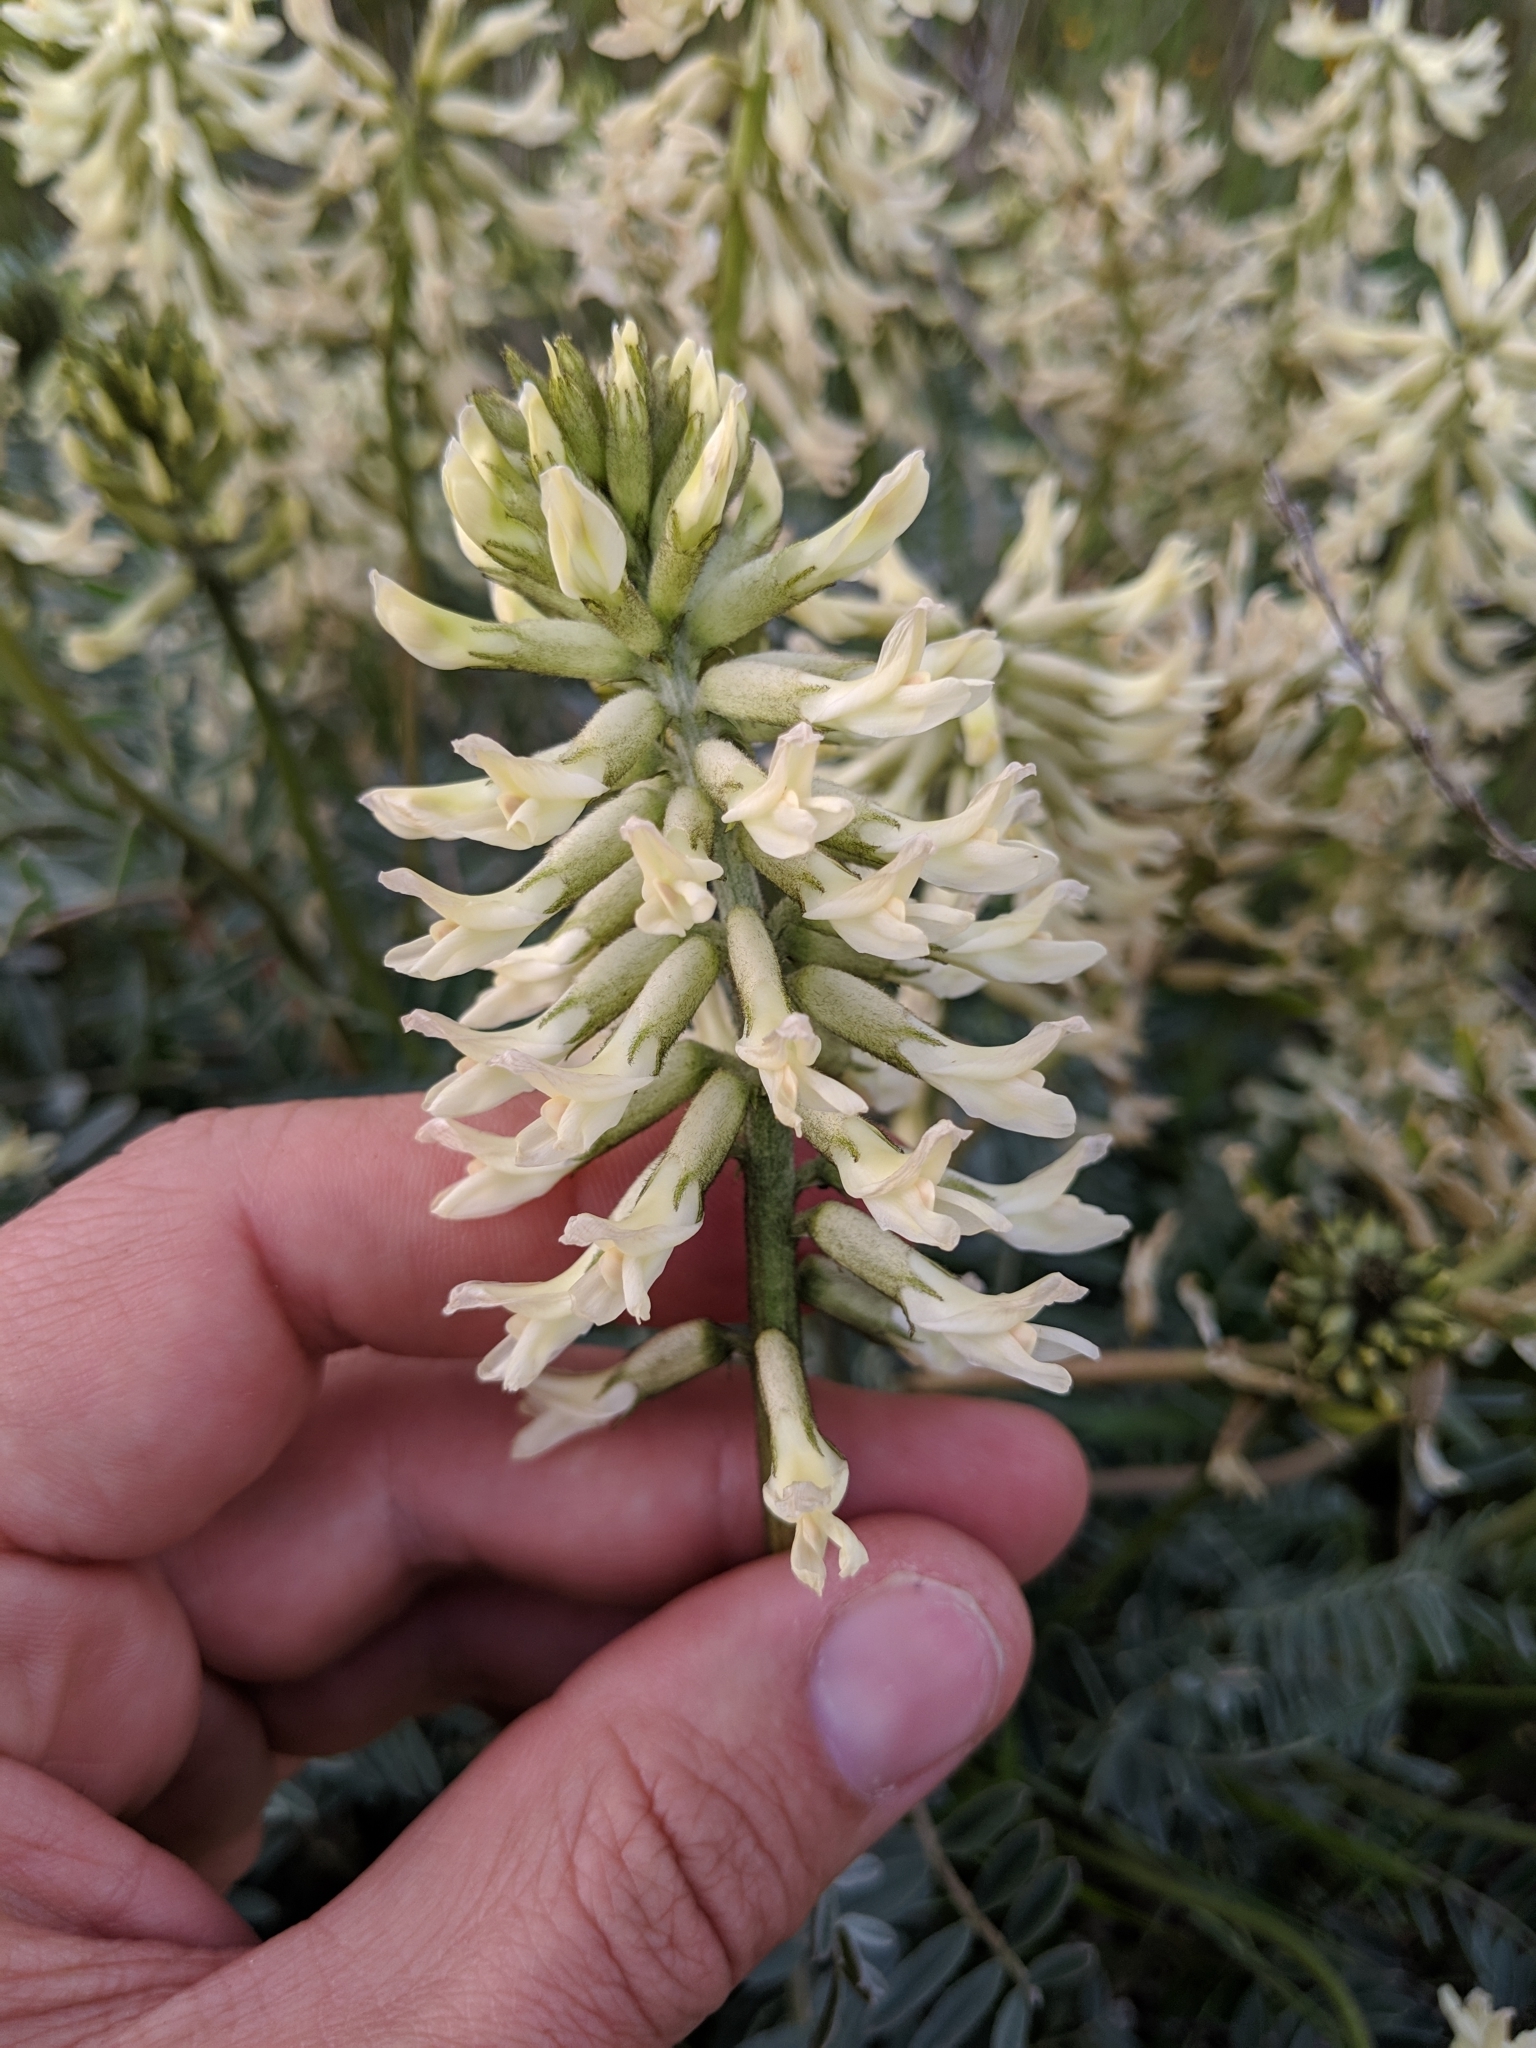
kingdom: Plantae
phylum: Tracheophyta
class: Magnoliopsida
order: Fabales
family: Fabaceae
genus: Astragalus
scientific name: Astragalus oxyphysus
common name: Stanislaus milk-vetch
